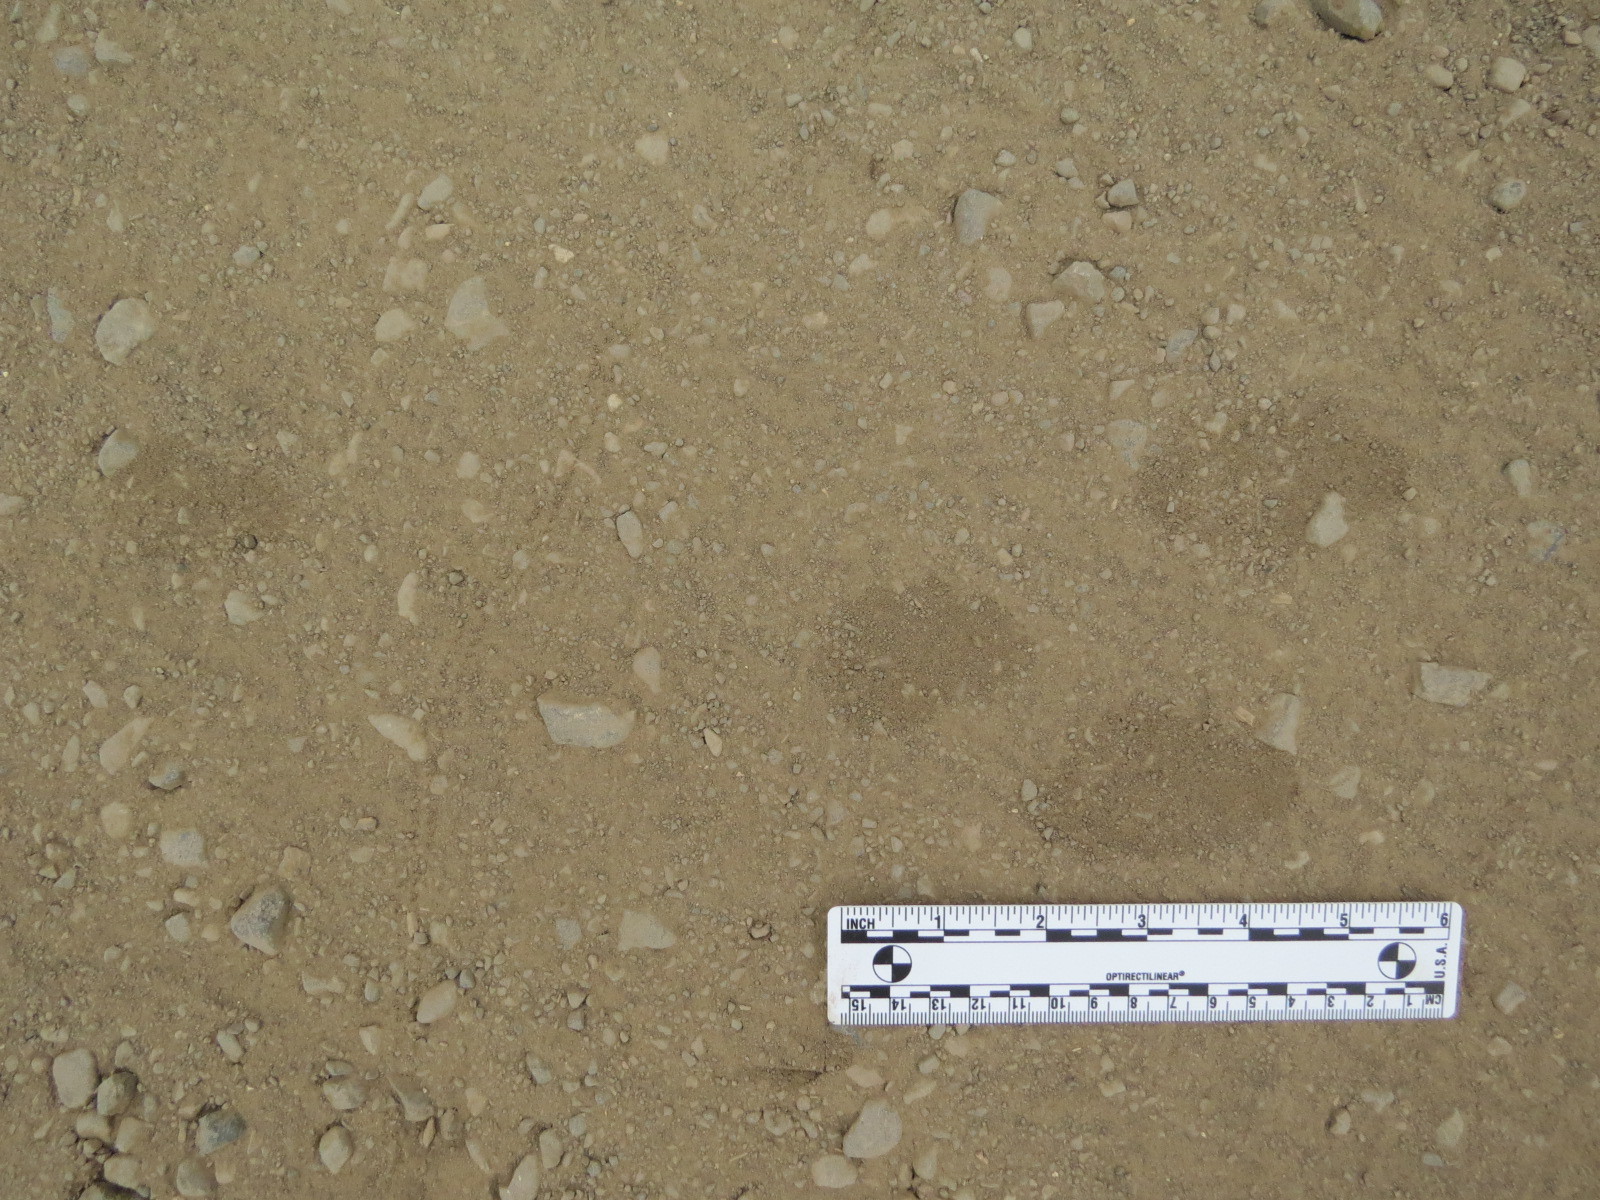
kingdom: Animalia
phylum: Chordata
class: Mammalia
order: Lagomorpha
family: Leporidae
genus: Lepus
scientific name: Lepus californicus
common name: Black-tailed jackrabbit
